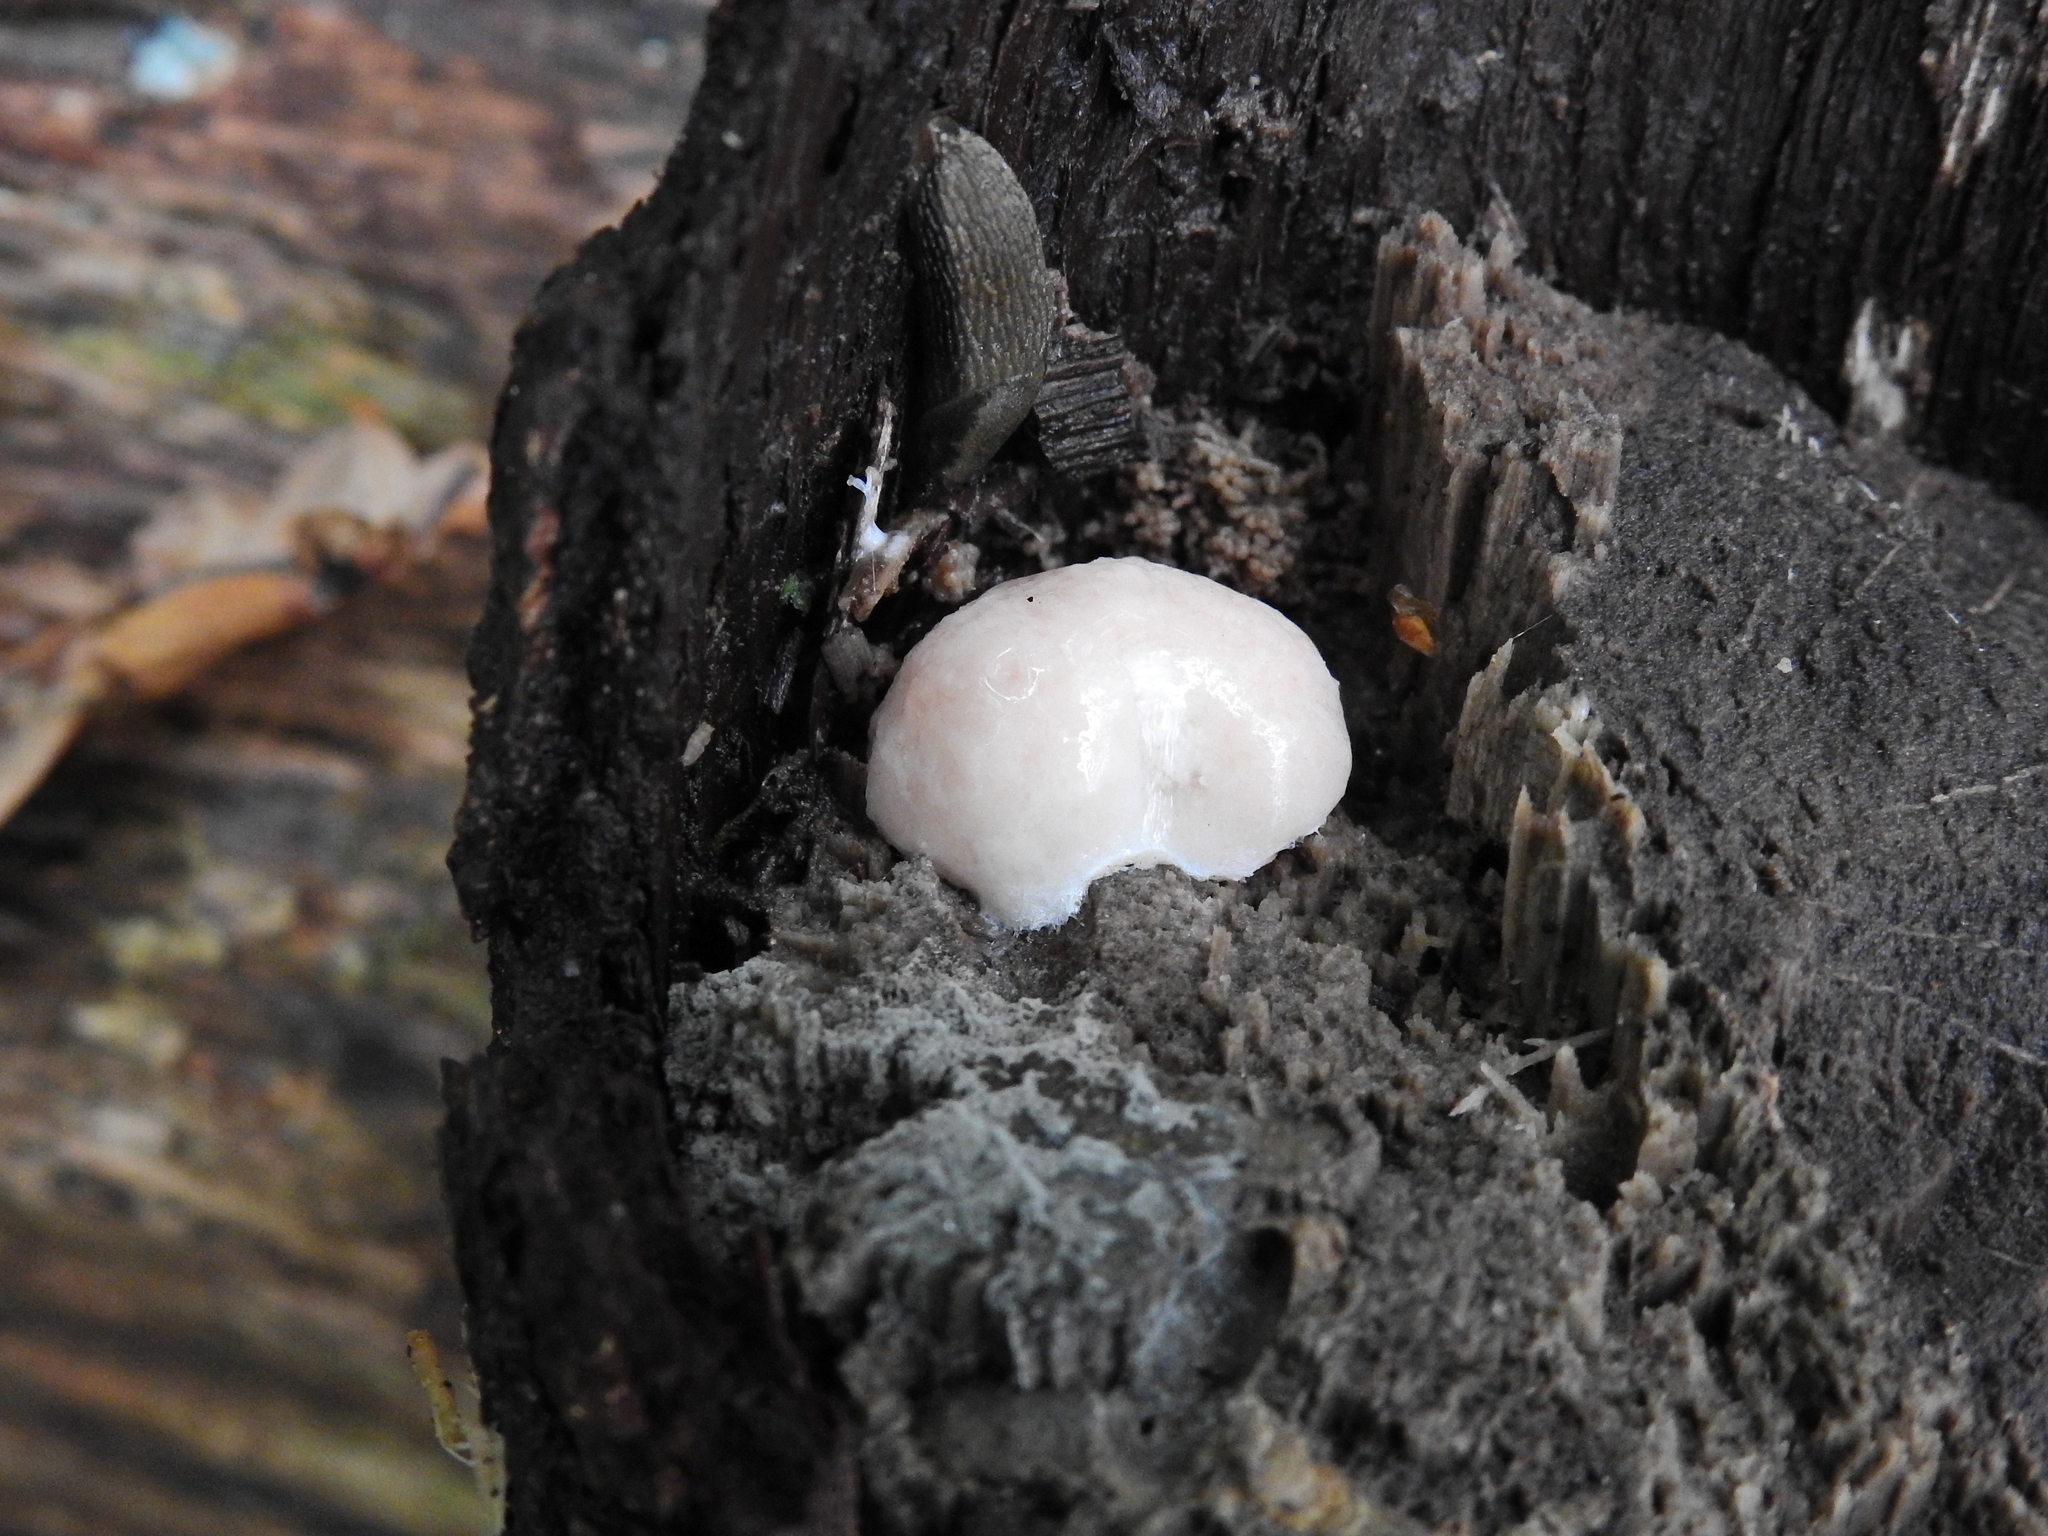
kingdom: Protozoa
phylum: Mycetozoa
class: Myxomycetes
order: Cribrariales
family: Tubiferaceae
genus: Reticularia
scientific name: Reticularia lycoperdon
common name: False puffball
